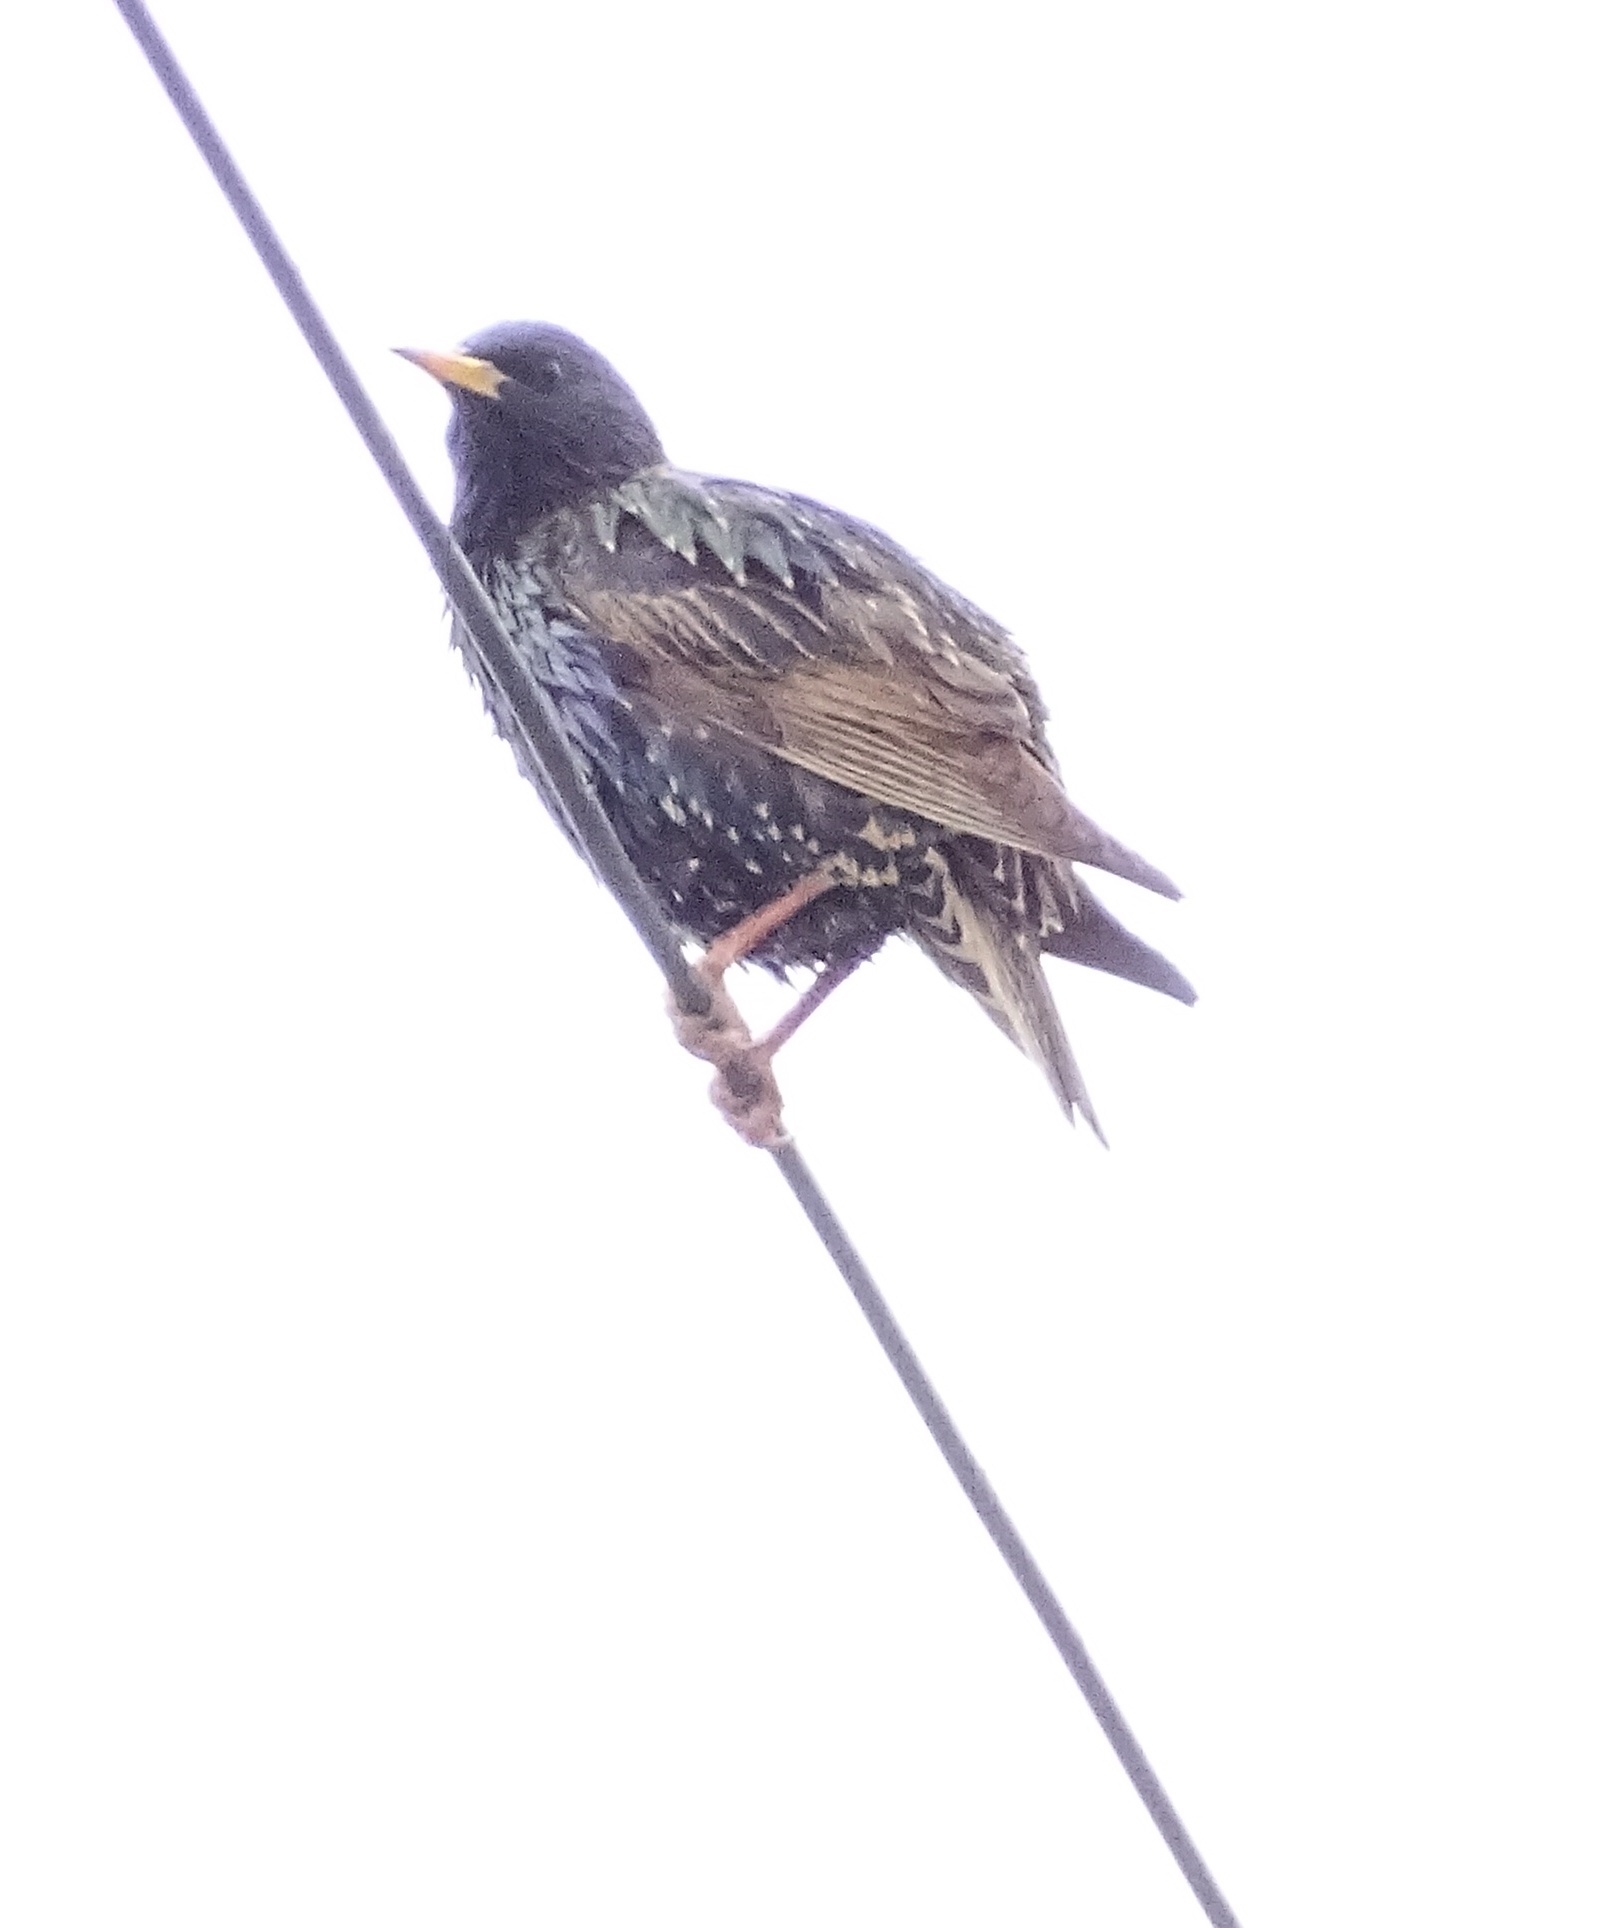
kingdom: Animalia
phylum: Chordata
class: Aves
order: Passeriformes
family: Sturnidae
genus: Sturnus
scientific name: Sturnus vulgaris
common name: Common starling
